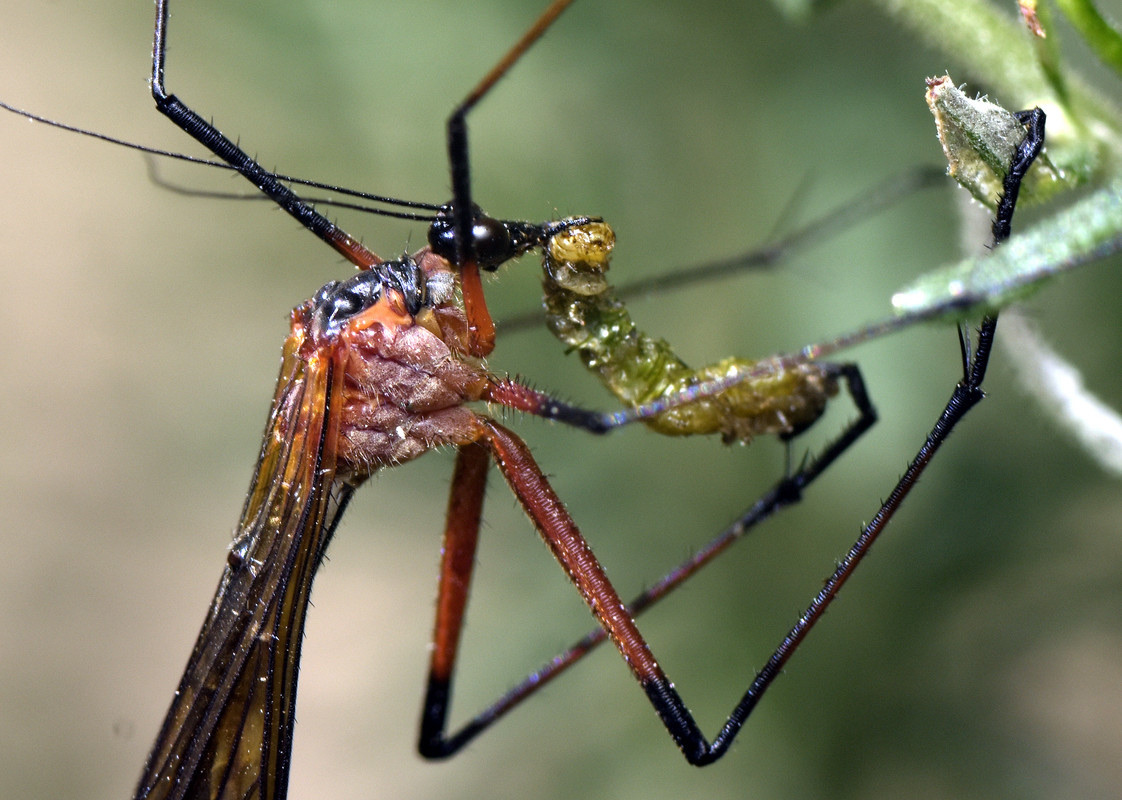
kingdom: Animalia
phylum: Arthropoda
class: Insecta
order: Mecoptera
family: Bittacidae
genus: Harpobittacus
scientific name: Harpobittacus nigriceps
